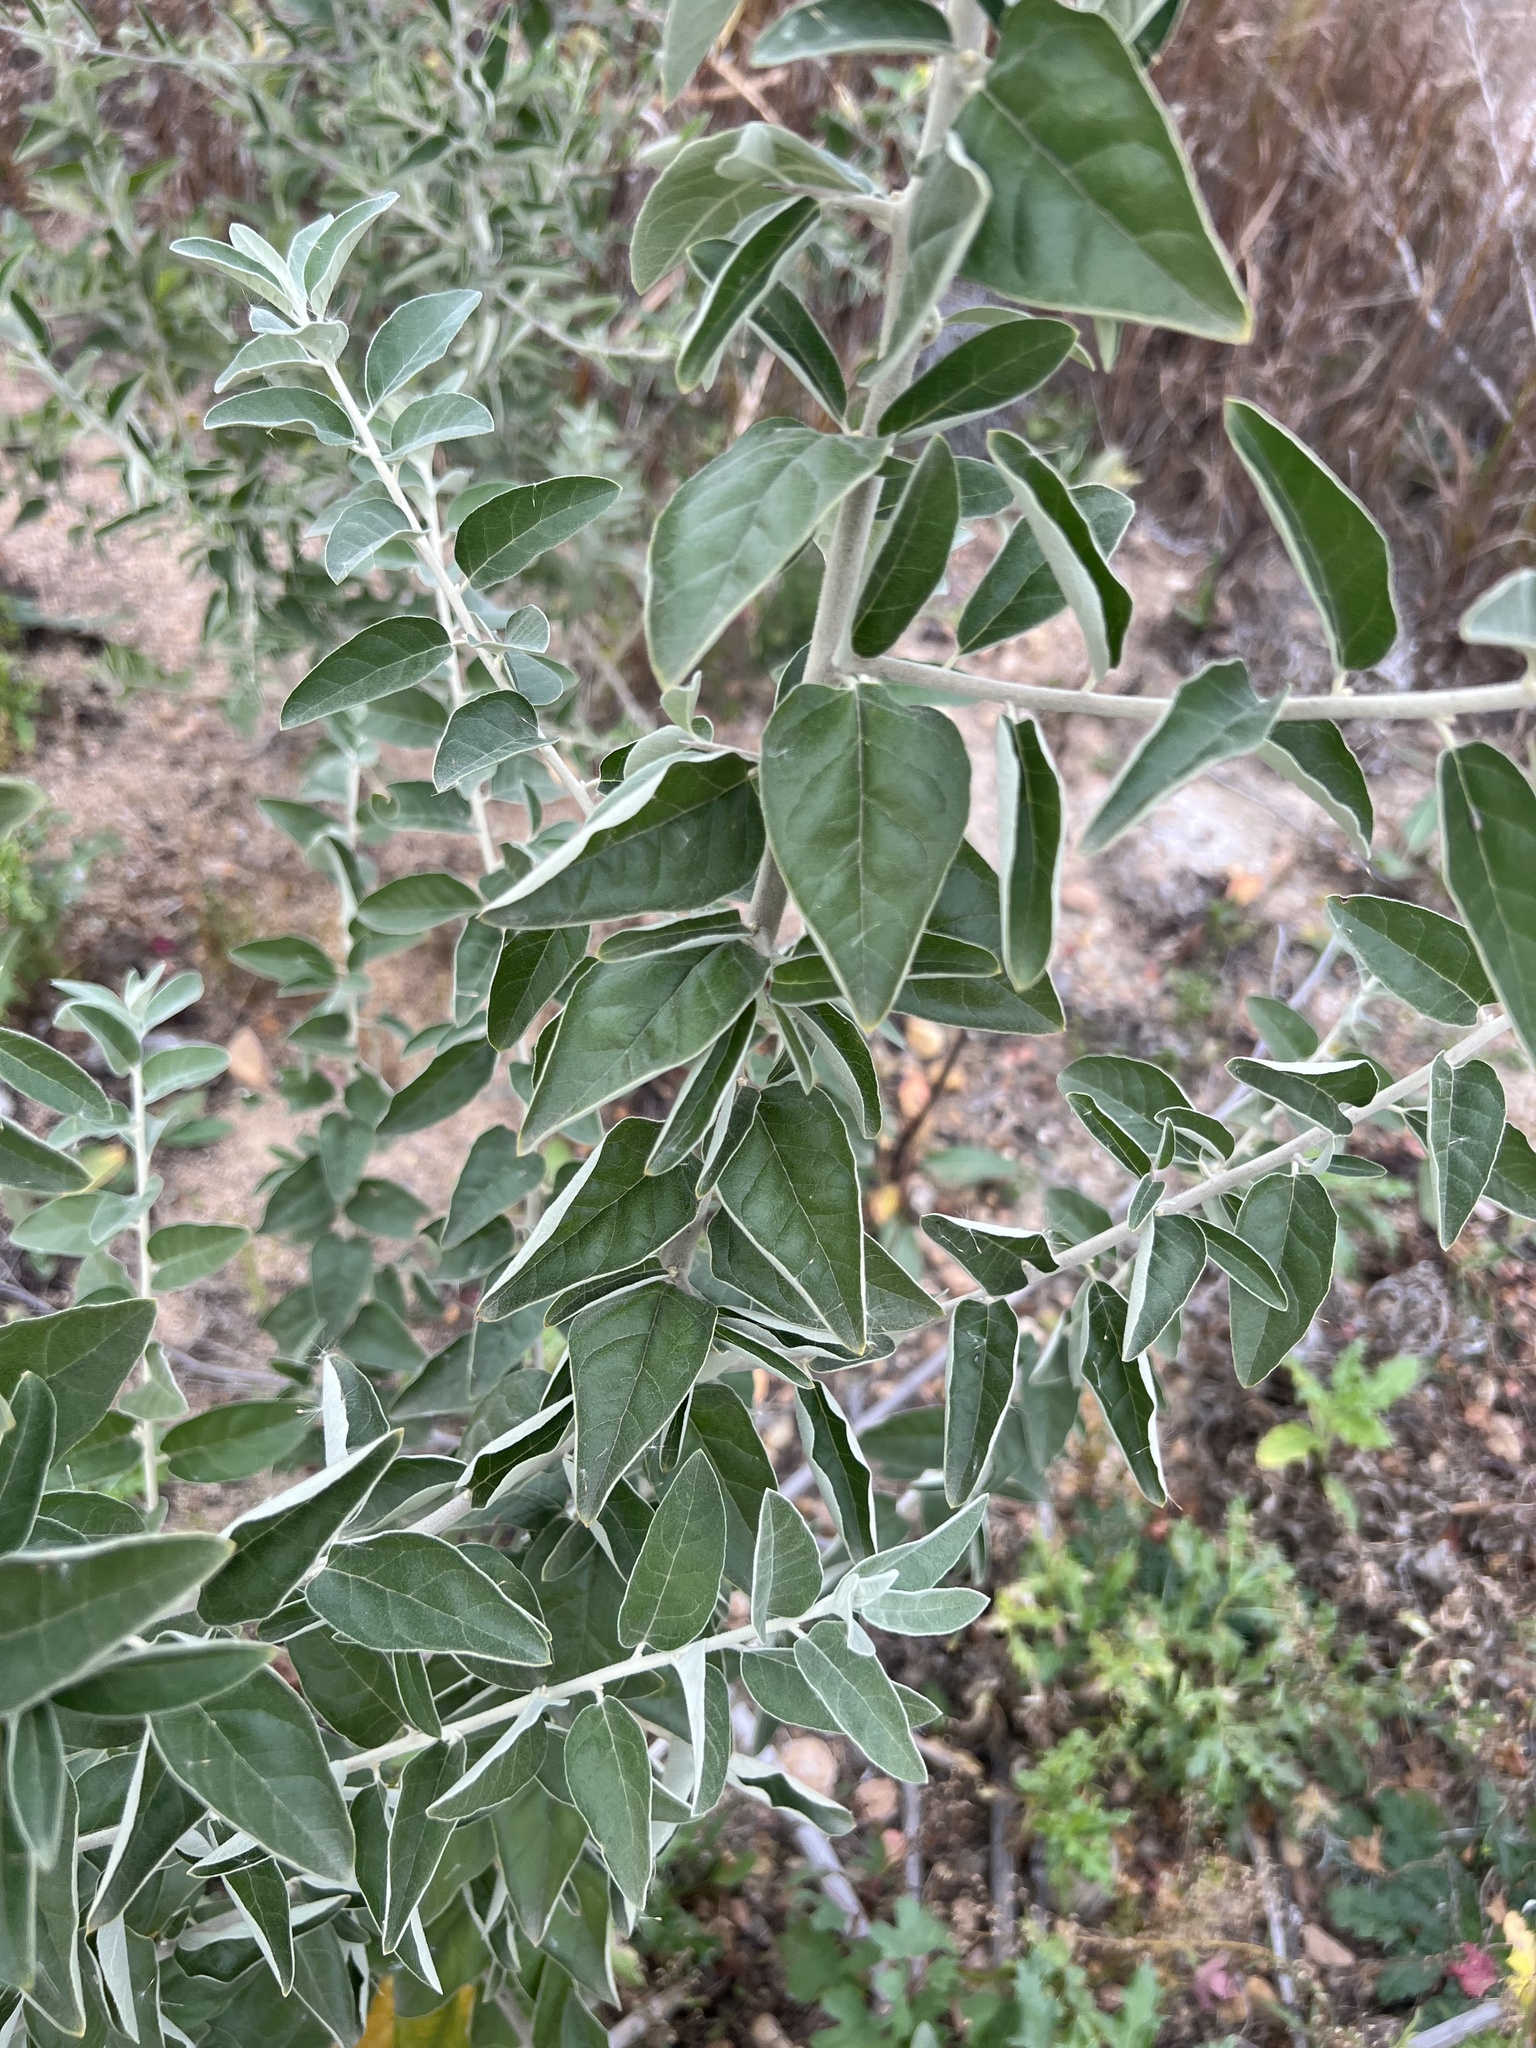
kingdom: Plantae
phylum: Tracheophyta
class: Magnoliopsida
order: Rosales
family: Elaeagnaceae
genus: Elaeagnus
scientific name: Elaeagnus angustifolia
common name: Russian olive
